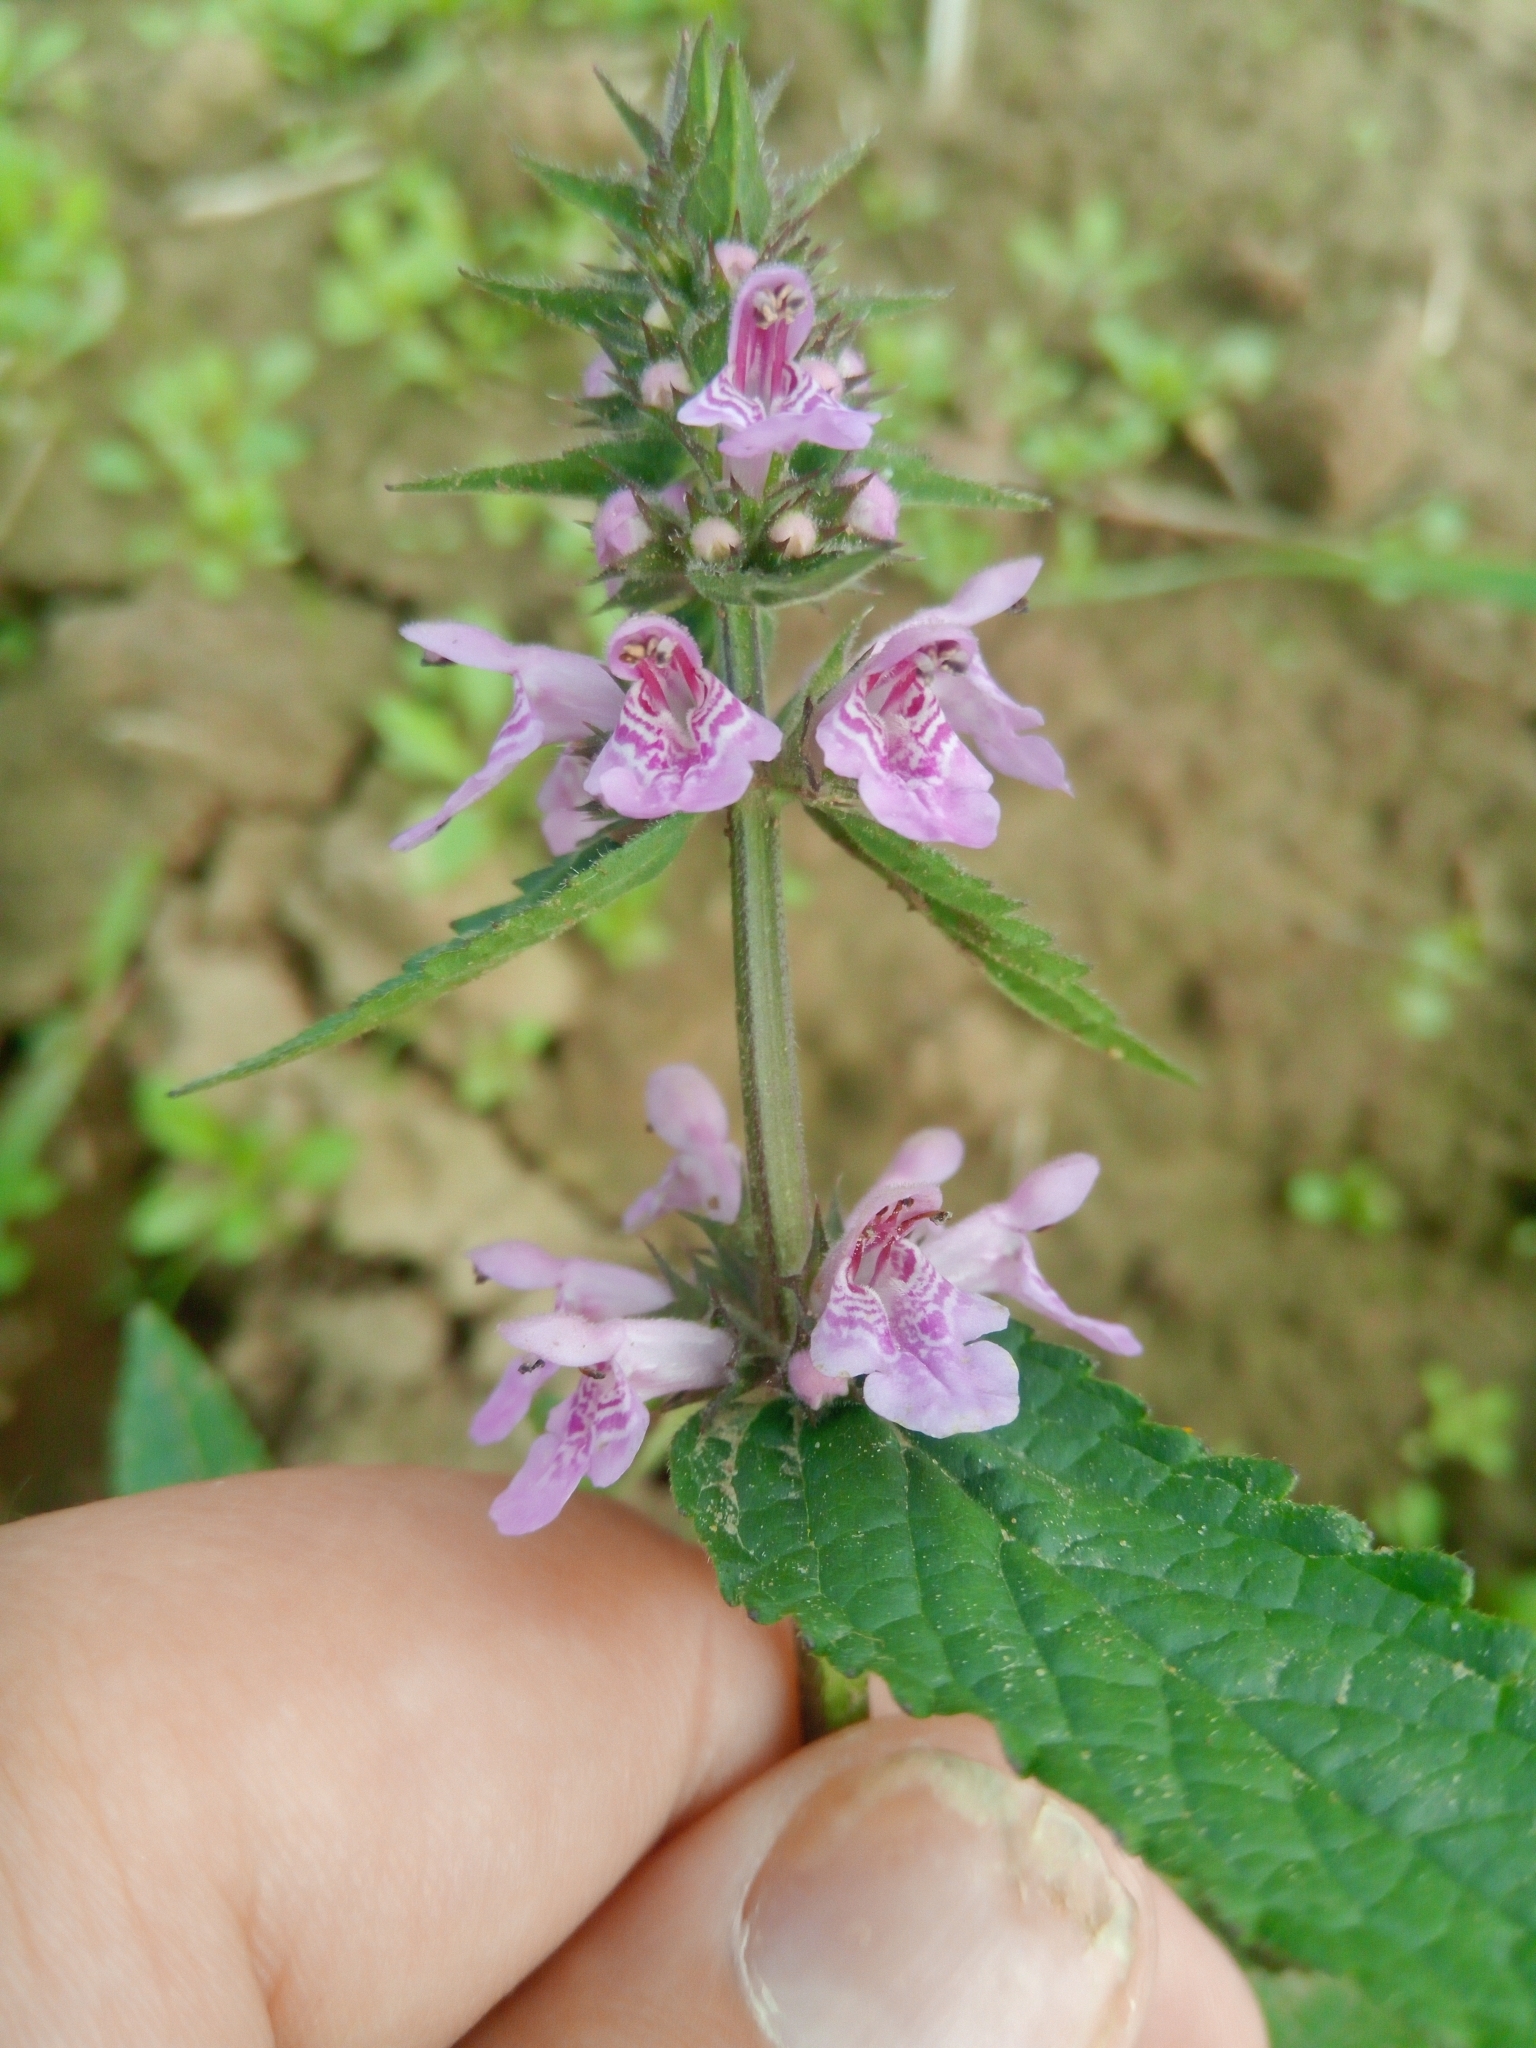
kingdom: Plantae
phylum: Tracheophyta
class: Magnoliopsida
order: Lamiales
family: Lamiaceae
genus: Stachys
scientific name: Stachys palustris
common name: Marsh woundwort
